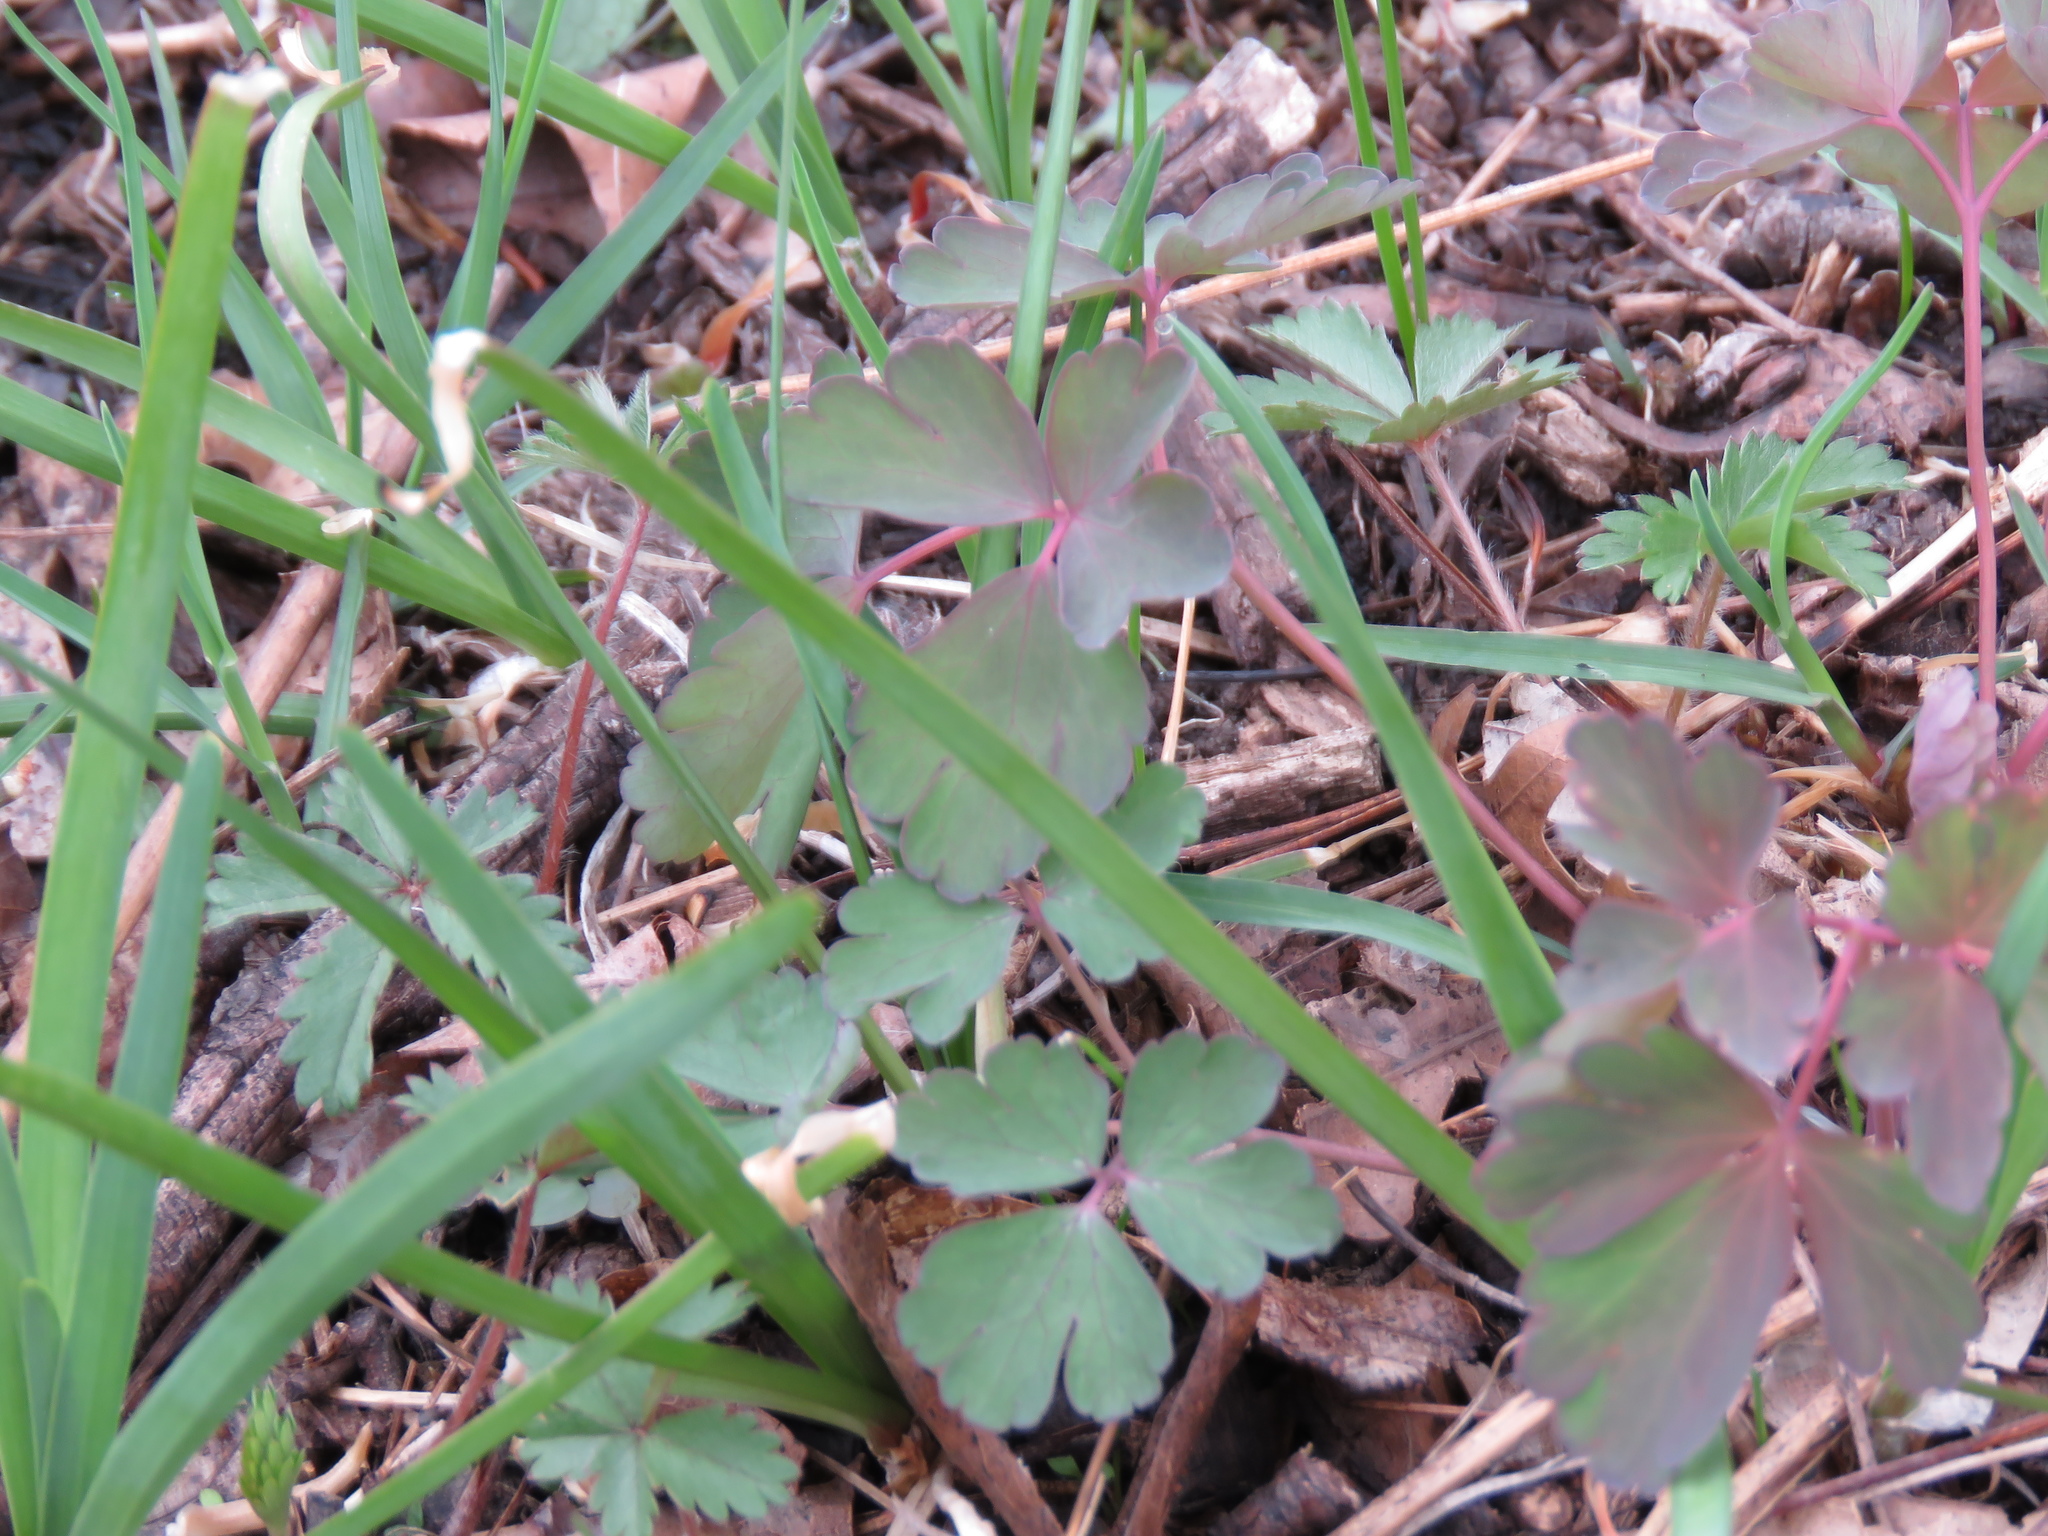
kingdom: Plantae
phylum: Tracheophyta
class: Magnoliopsida
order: Ranunculales
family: Ranunculaceae
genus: Aquilegia
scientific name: Aquilegia canadensis
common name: American columbine
